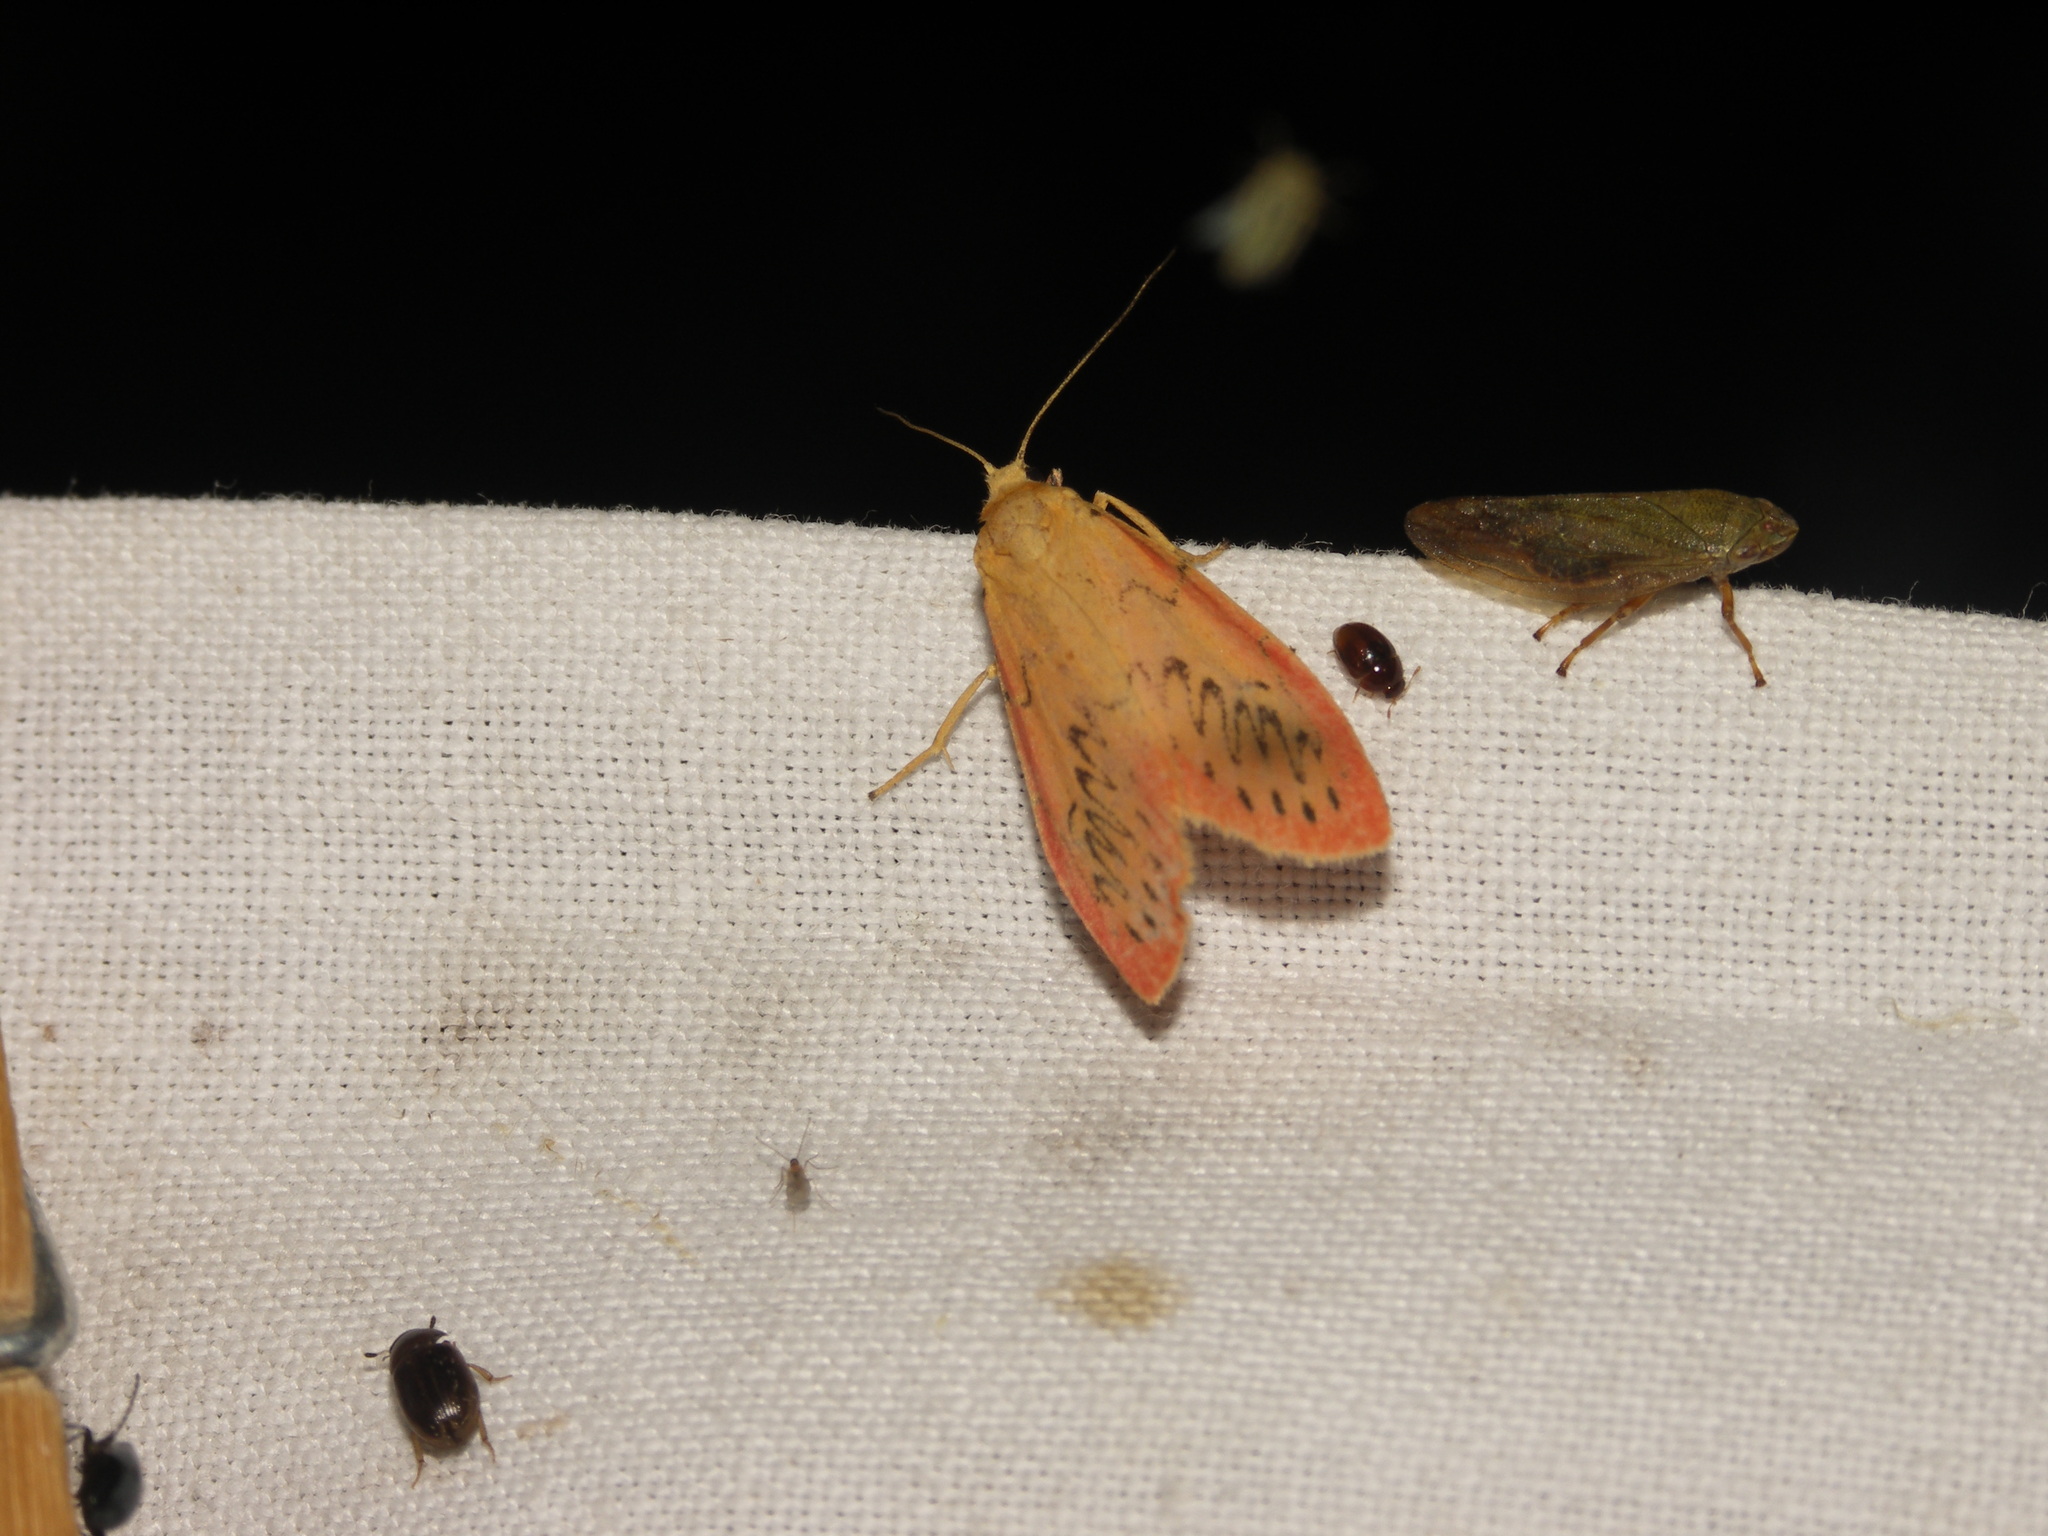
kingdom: Animalia
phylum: Arthropoda
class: Insecta
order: Lepidoptera
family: Erebidae
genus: Miltochrista
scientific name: Miltochrista miniata
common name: Rosy footman
